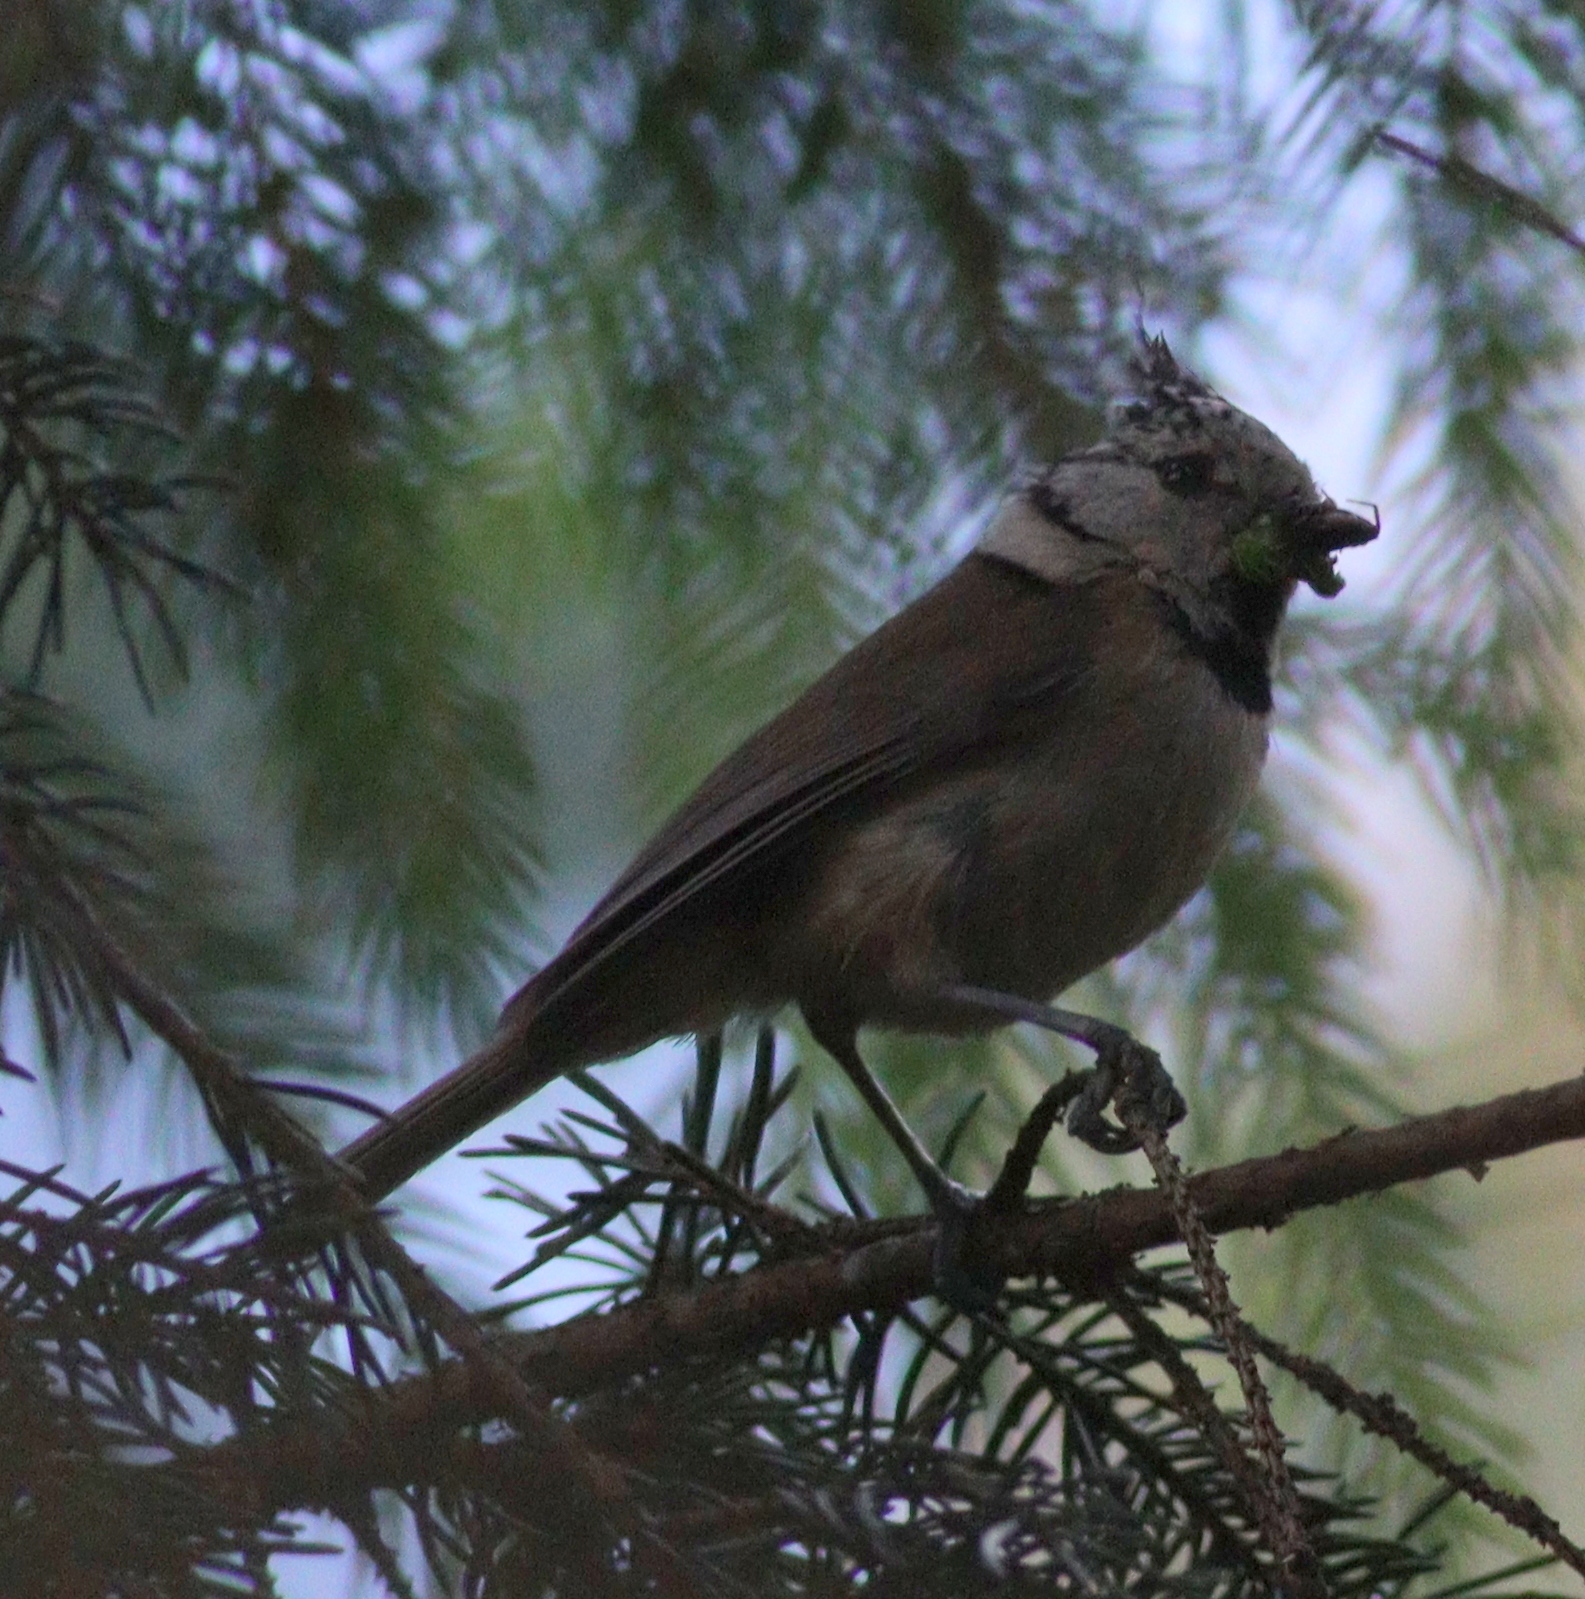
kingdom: Animalia
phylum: Chordata
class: Aves
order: Passeriformes
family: Paridae
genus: Lophophanes
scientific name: Lophophanes cristatus
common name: European crested tit
